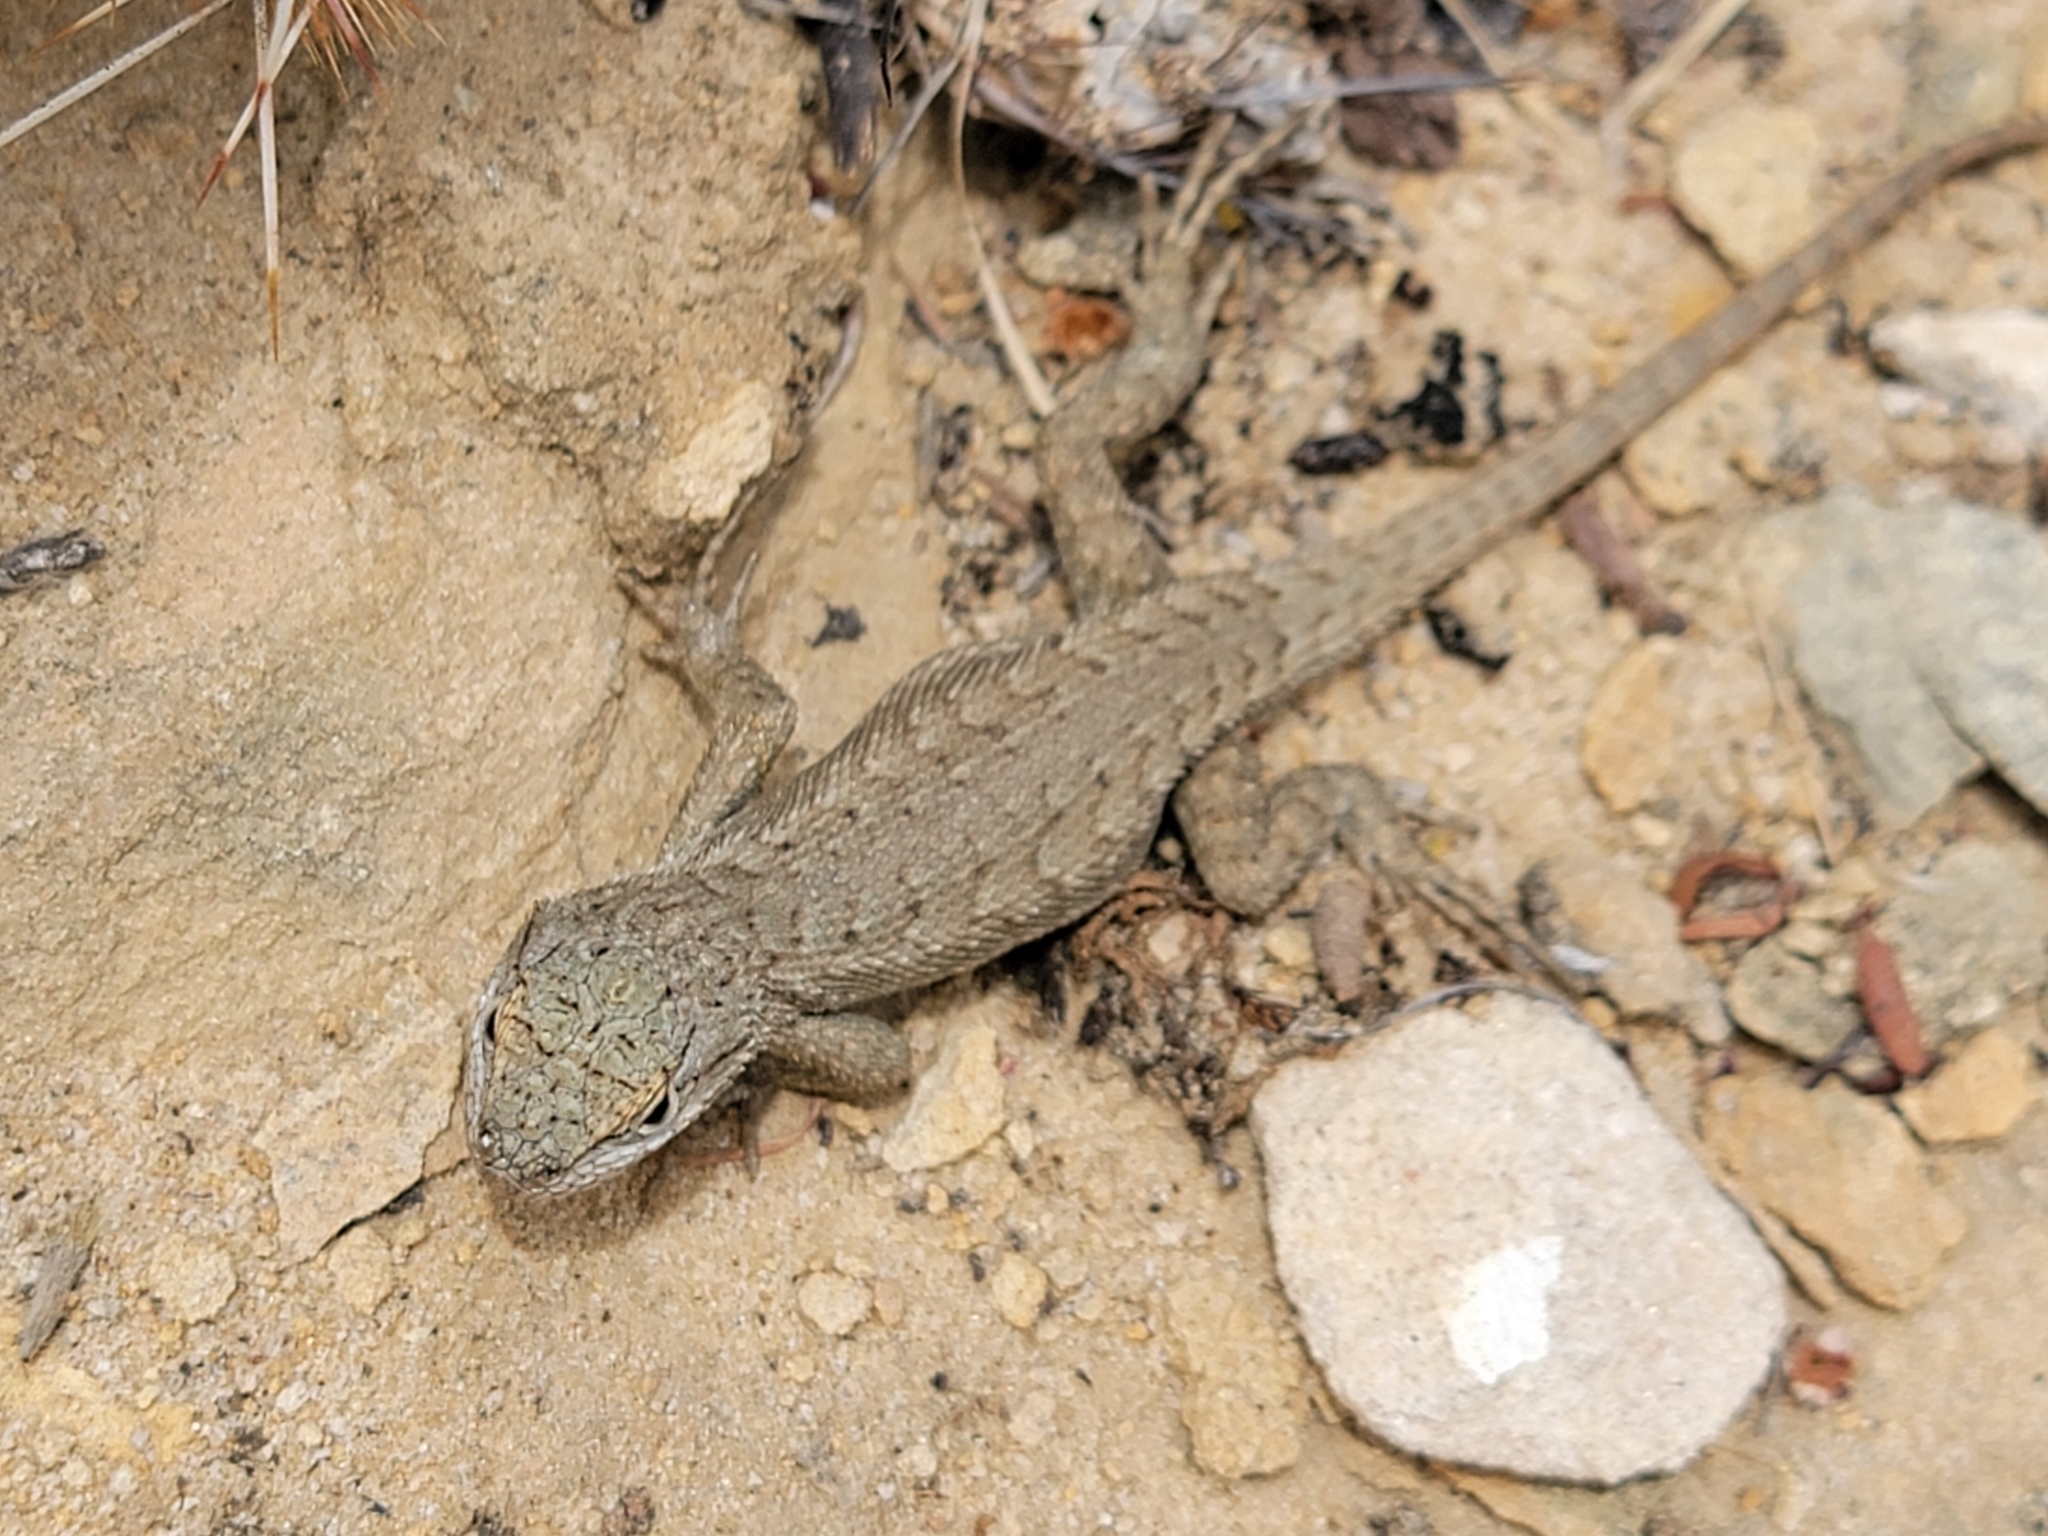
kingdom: Animalia
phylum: Chordata
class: Squamata
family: Phrynosomatidae
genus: Sceloporus
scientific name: Sceloporus tristichus
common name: Plateau fence lizard
